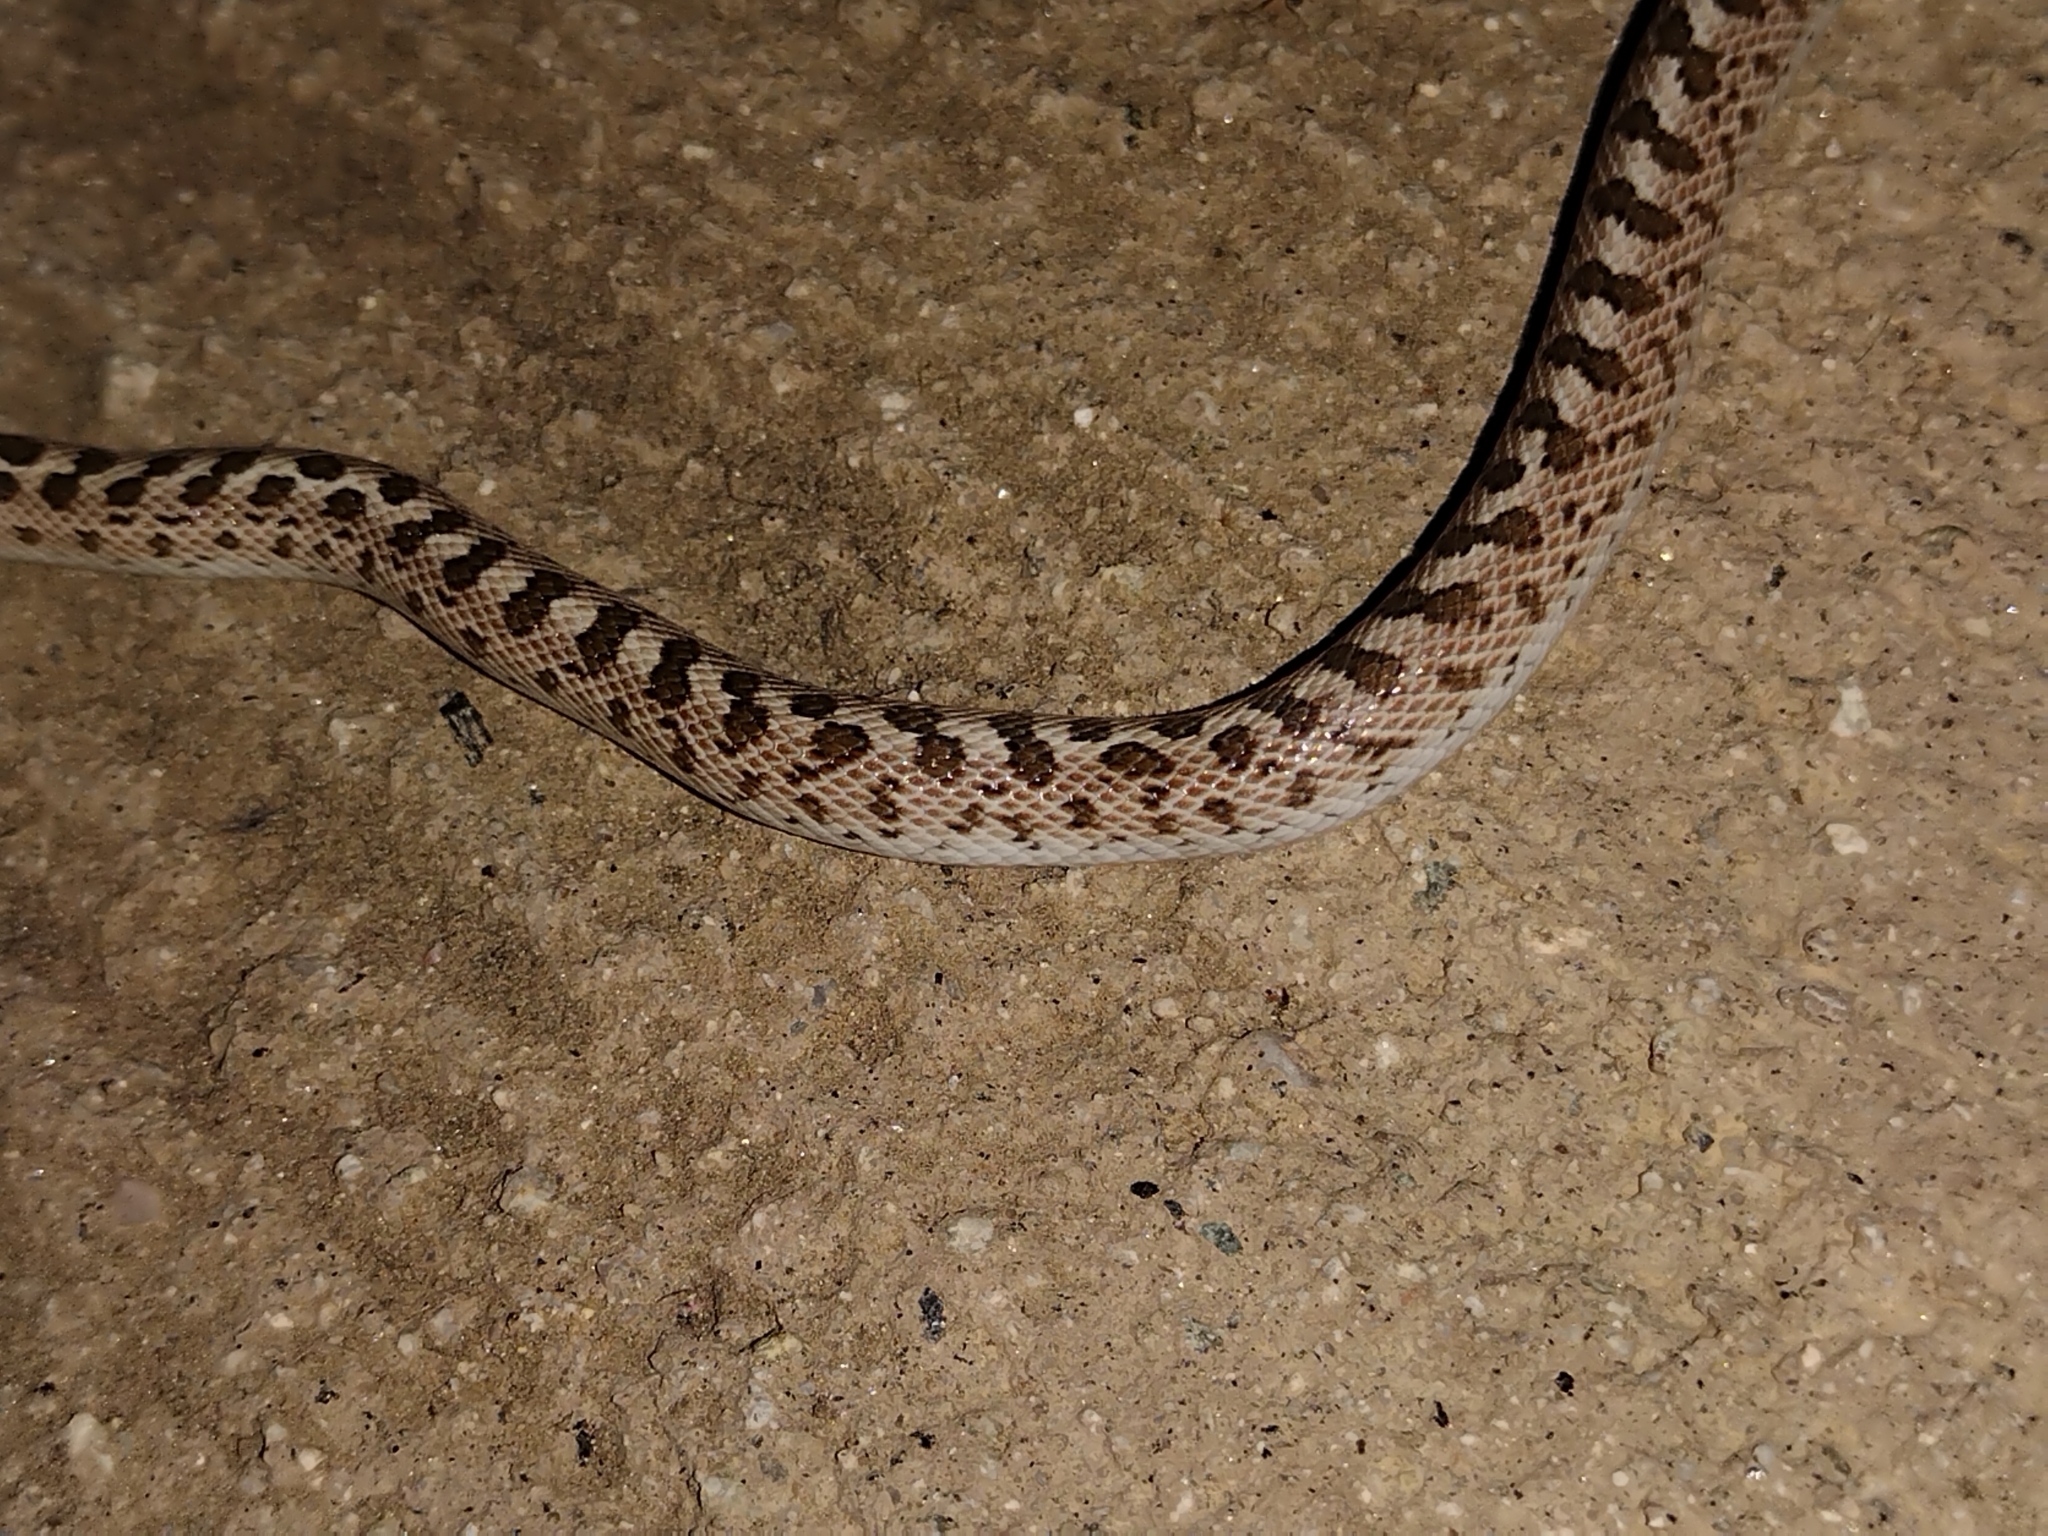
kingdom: Animalia
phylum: Chordata
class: Squamata
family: Colubridae
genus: Arizona
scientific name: Arizona elegans
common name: Glossy snake
